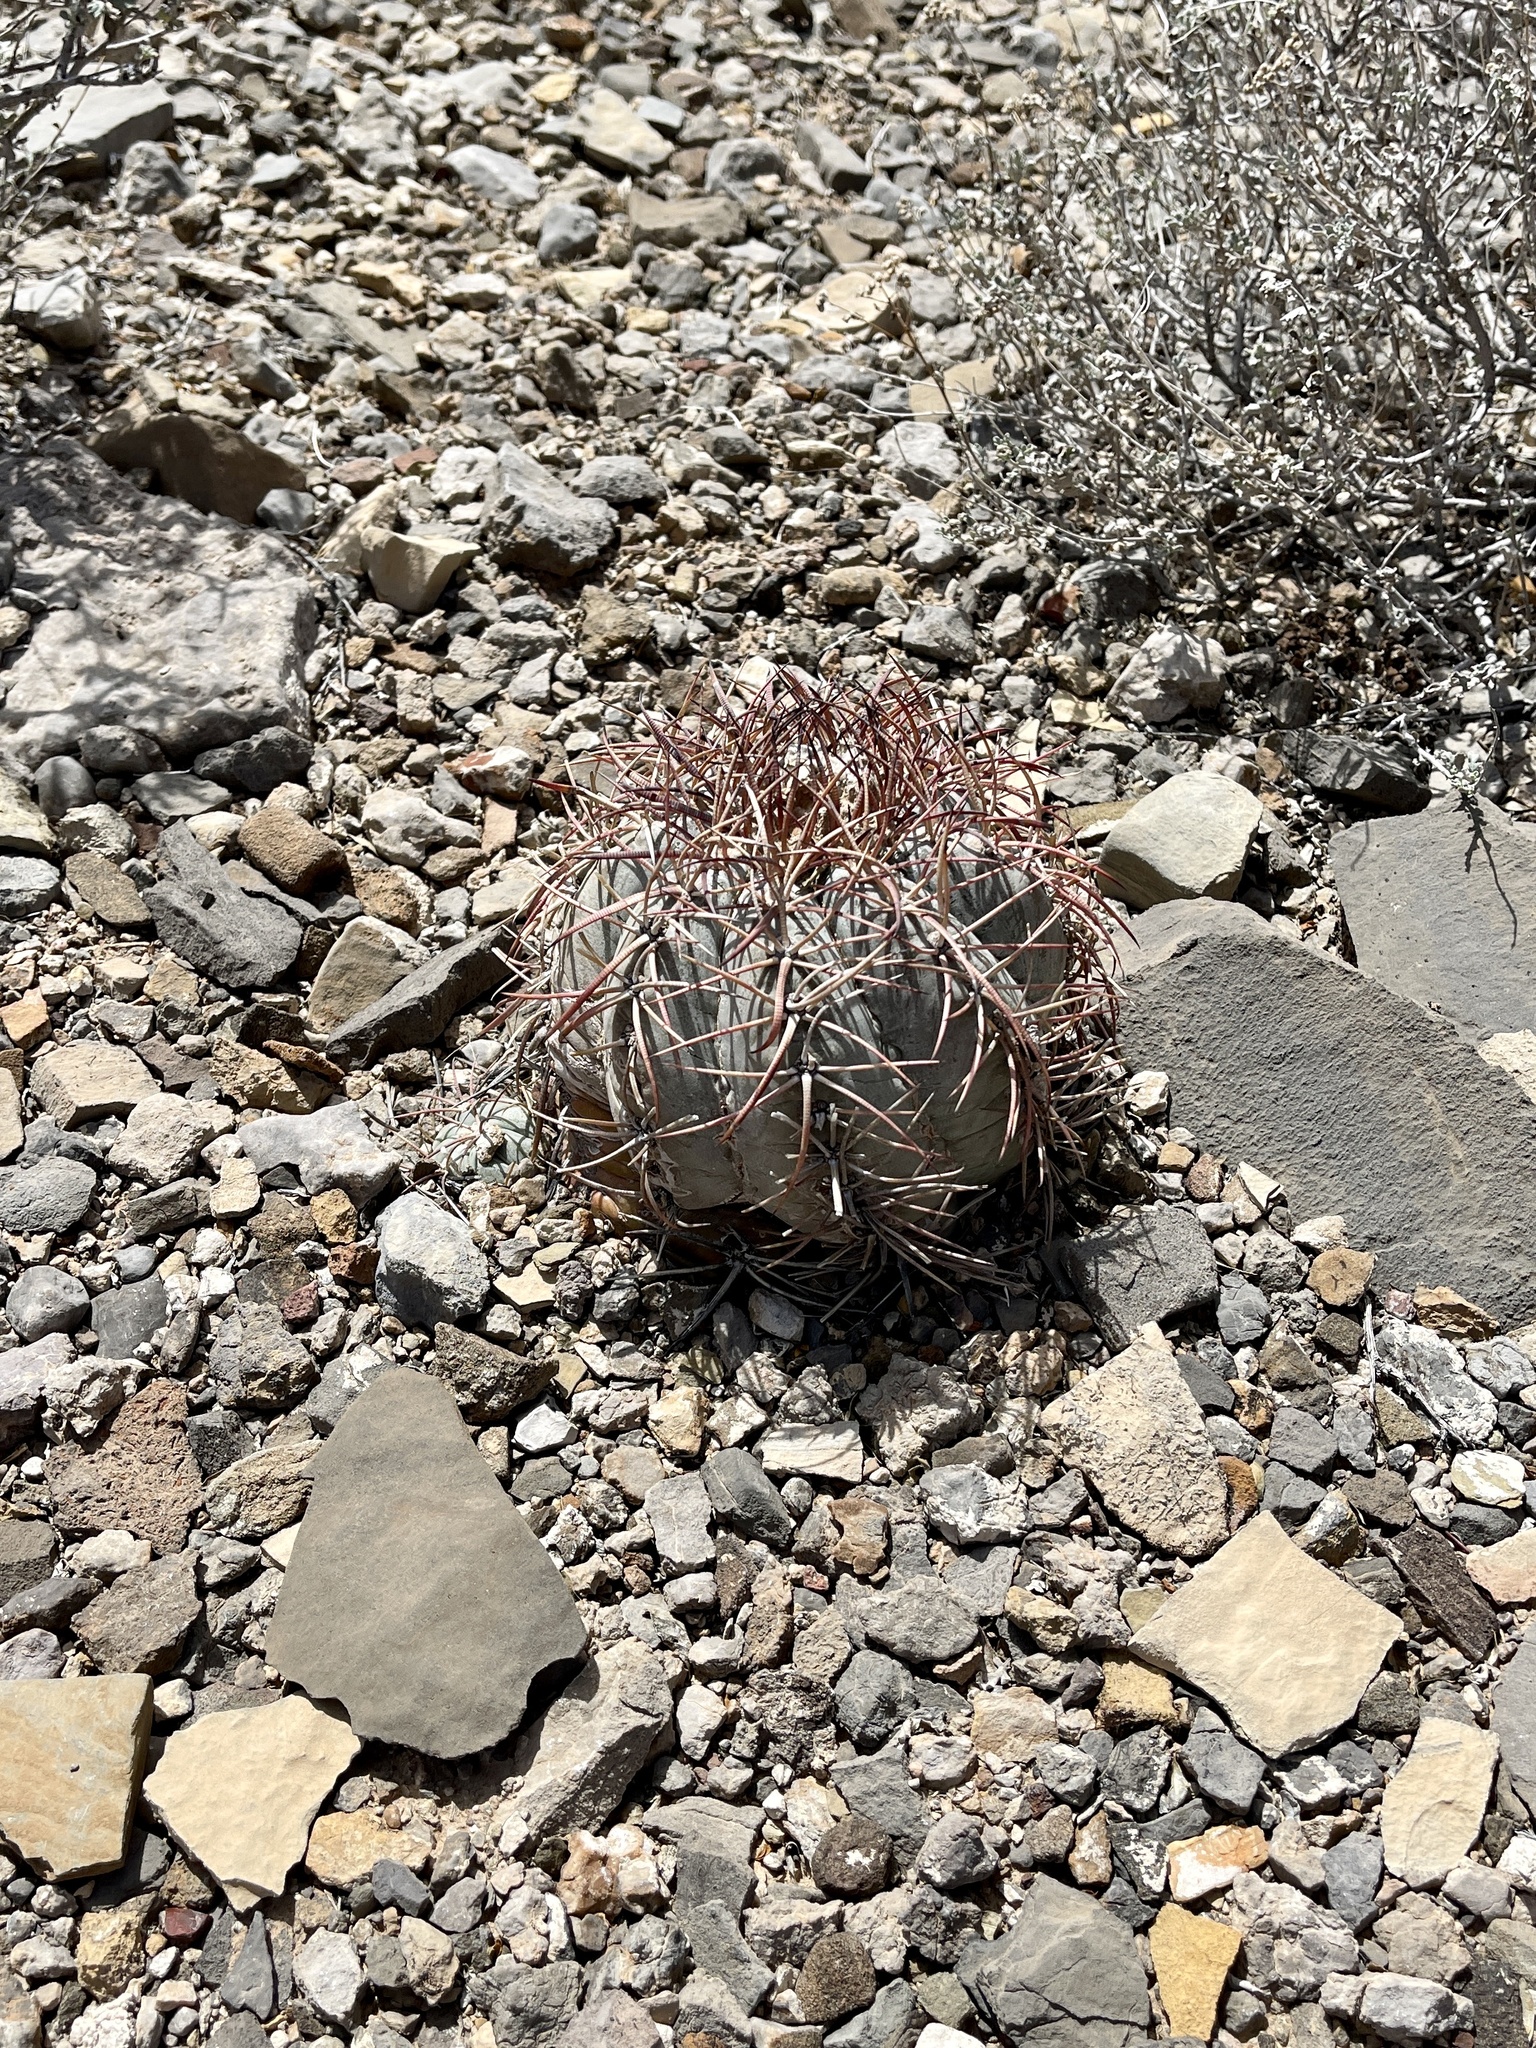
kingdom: Plantae
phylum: Tracheophyta
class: Magnoliopsida
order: Caryophyllales
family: Cactaceae
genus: Echinocactus
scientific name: Echinocactus horizonthalonius
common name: Devilshead
